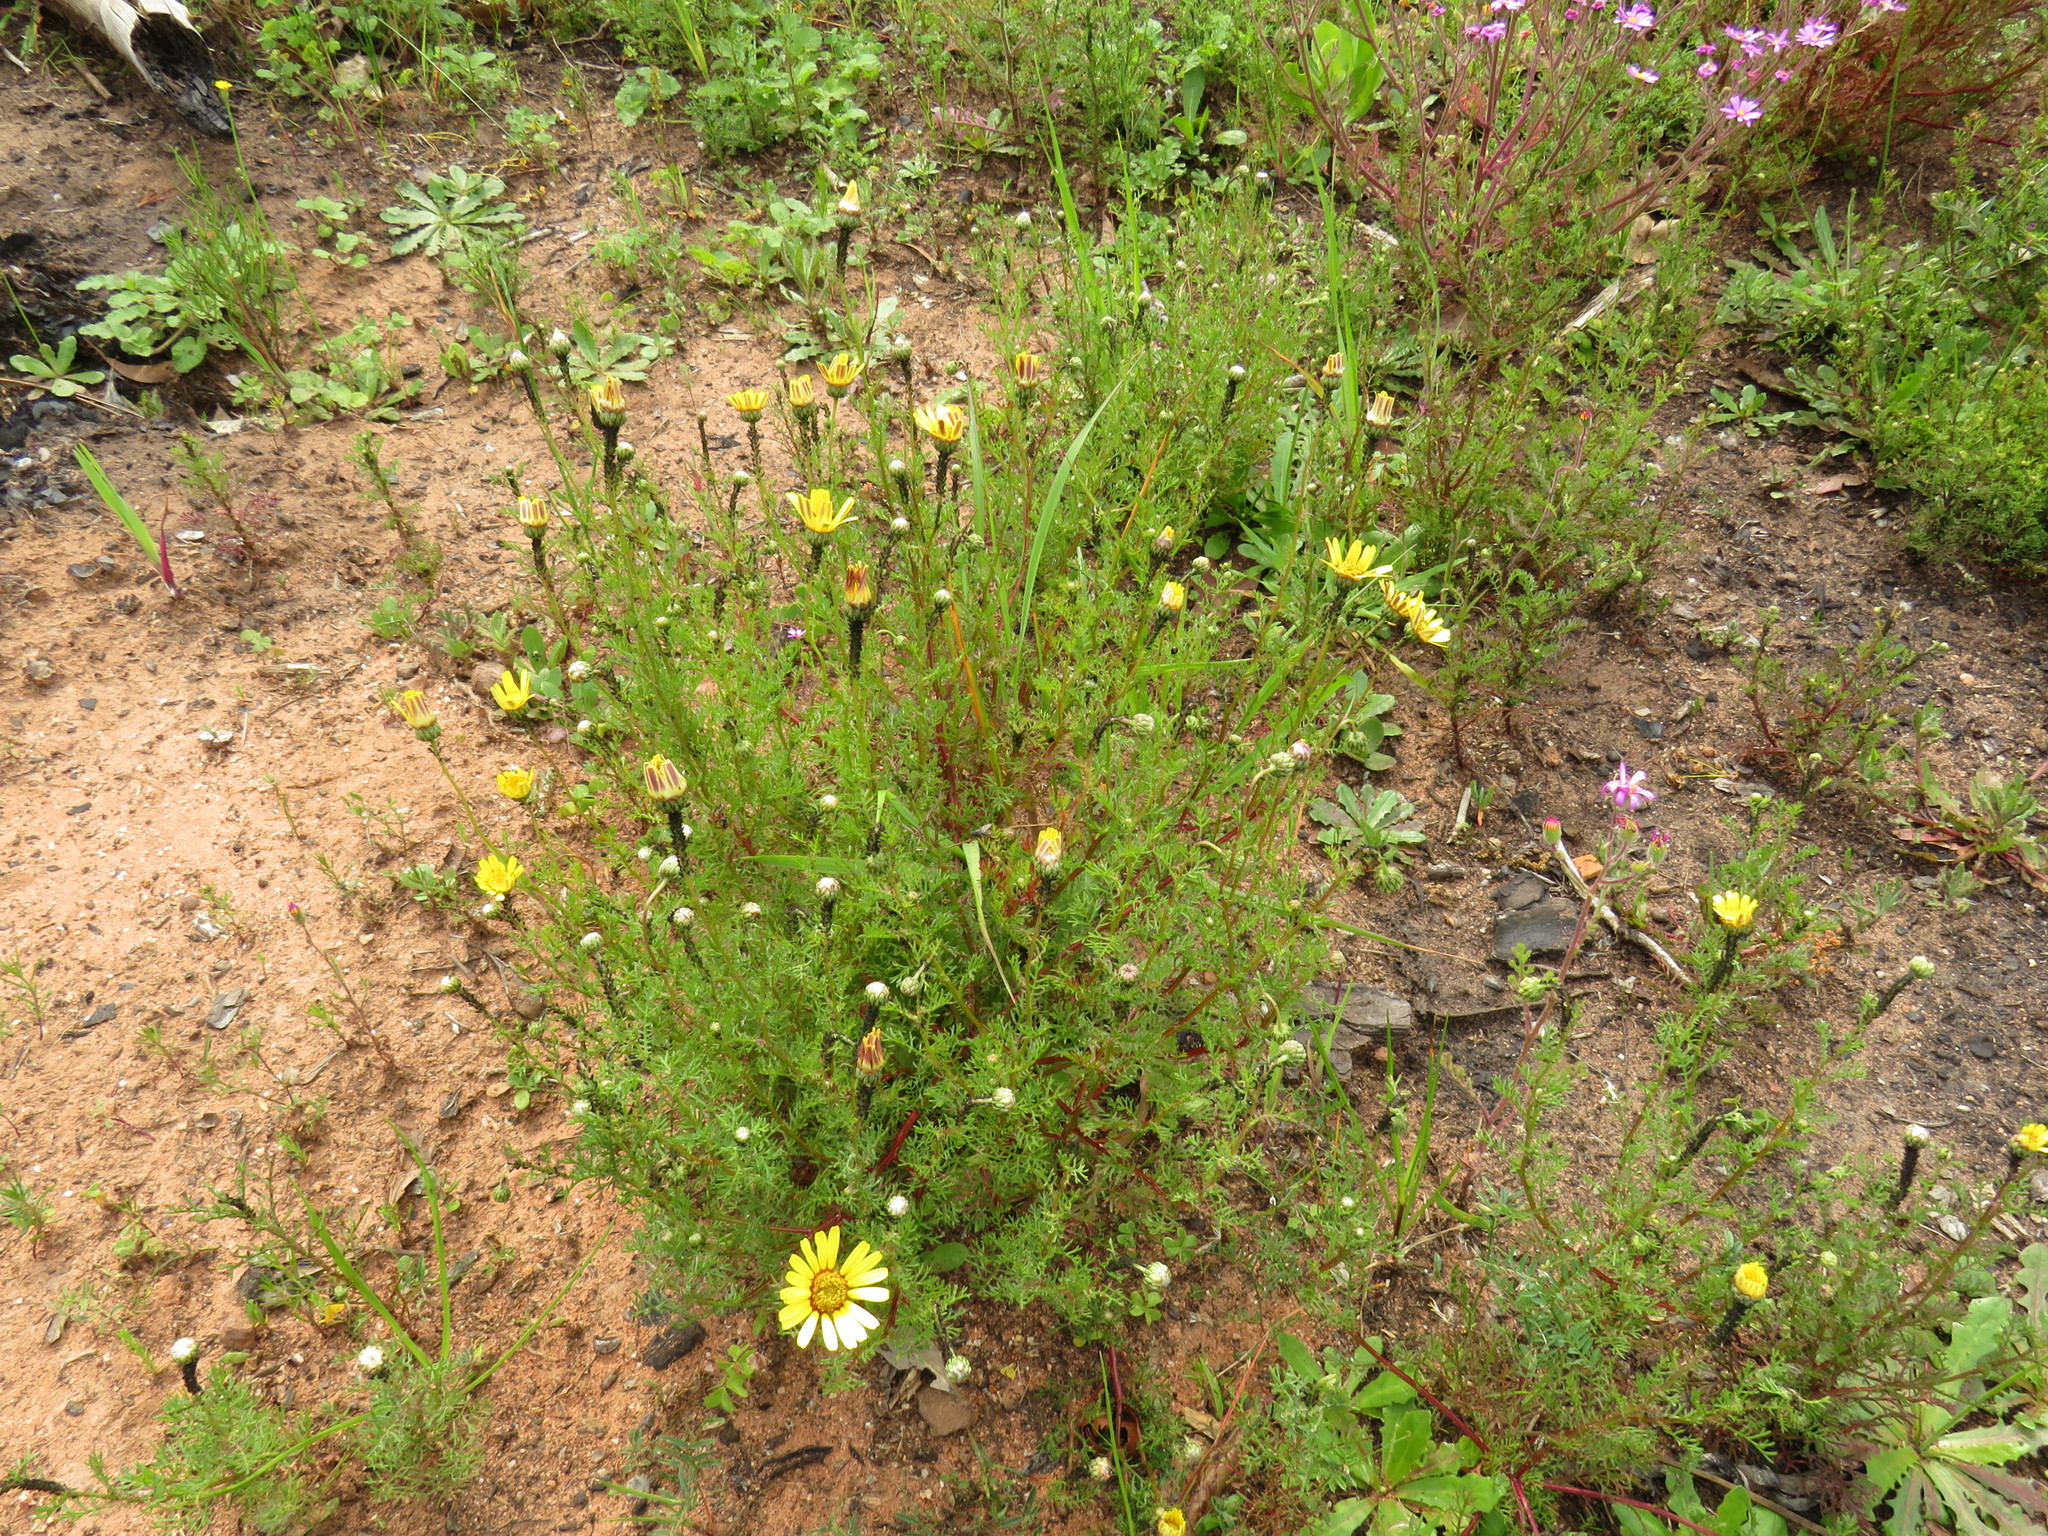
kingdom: Plantae
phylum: Tracheophyta
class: Magnoliopsida
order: Asterales
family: Asteraceae
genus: Ursinia
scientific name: Ursinia anthemoides
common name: Ursinia
